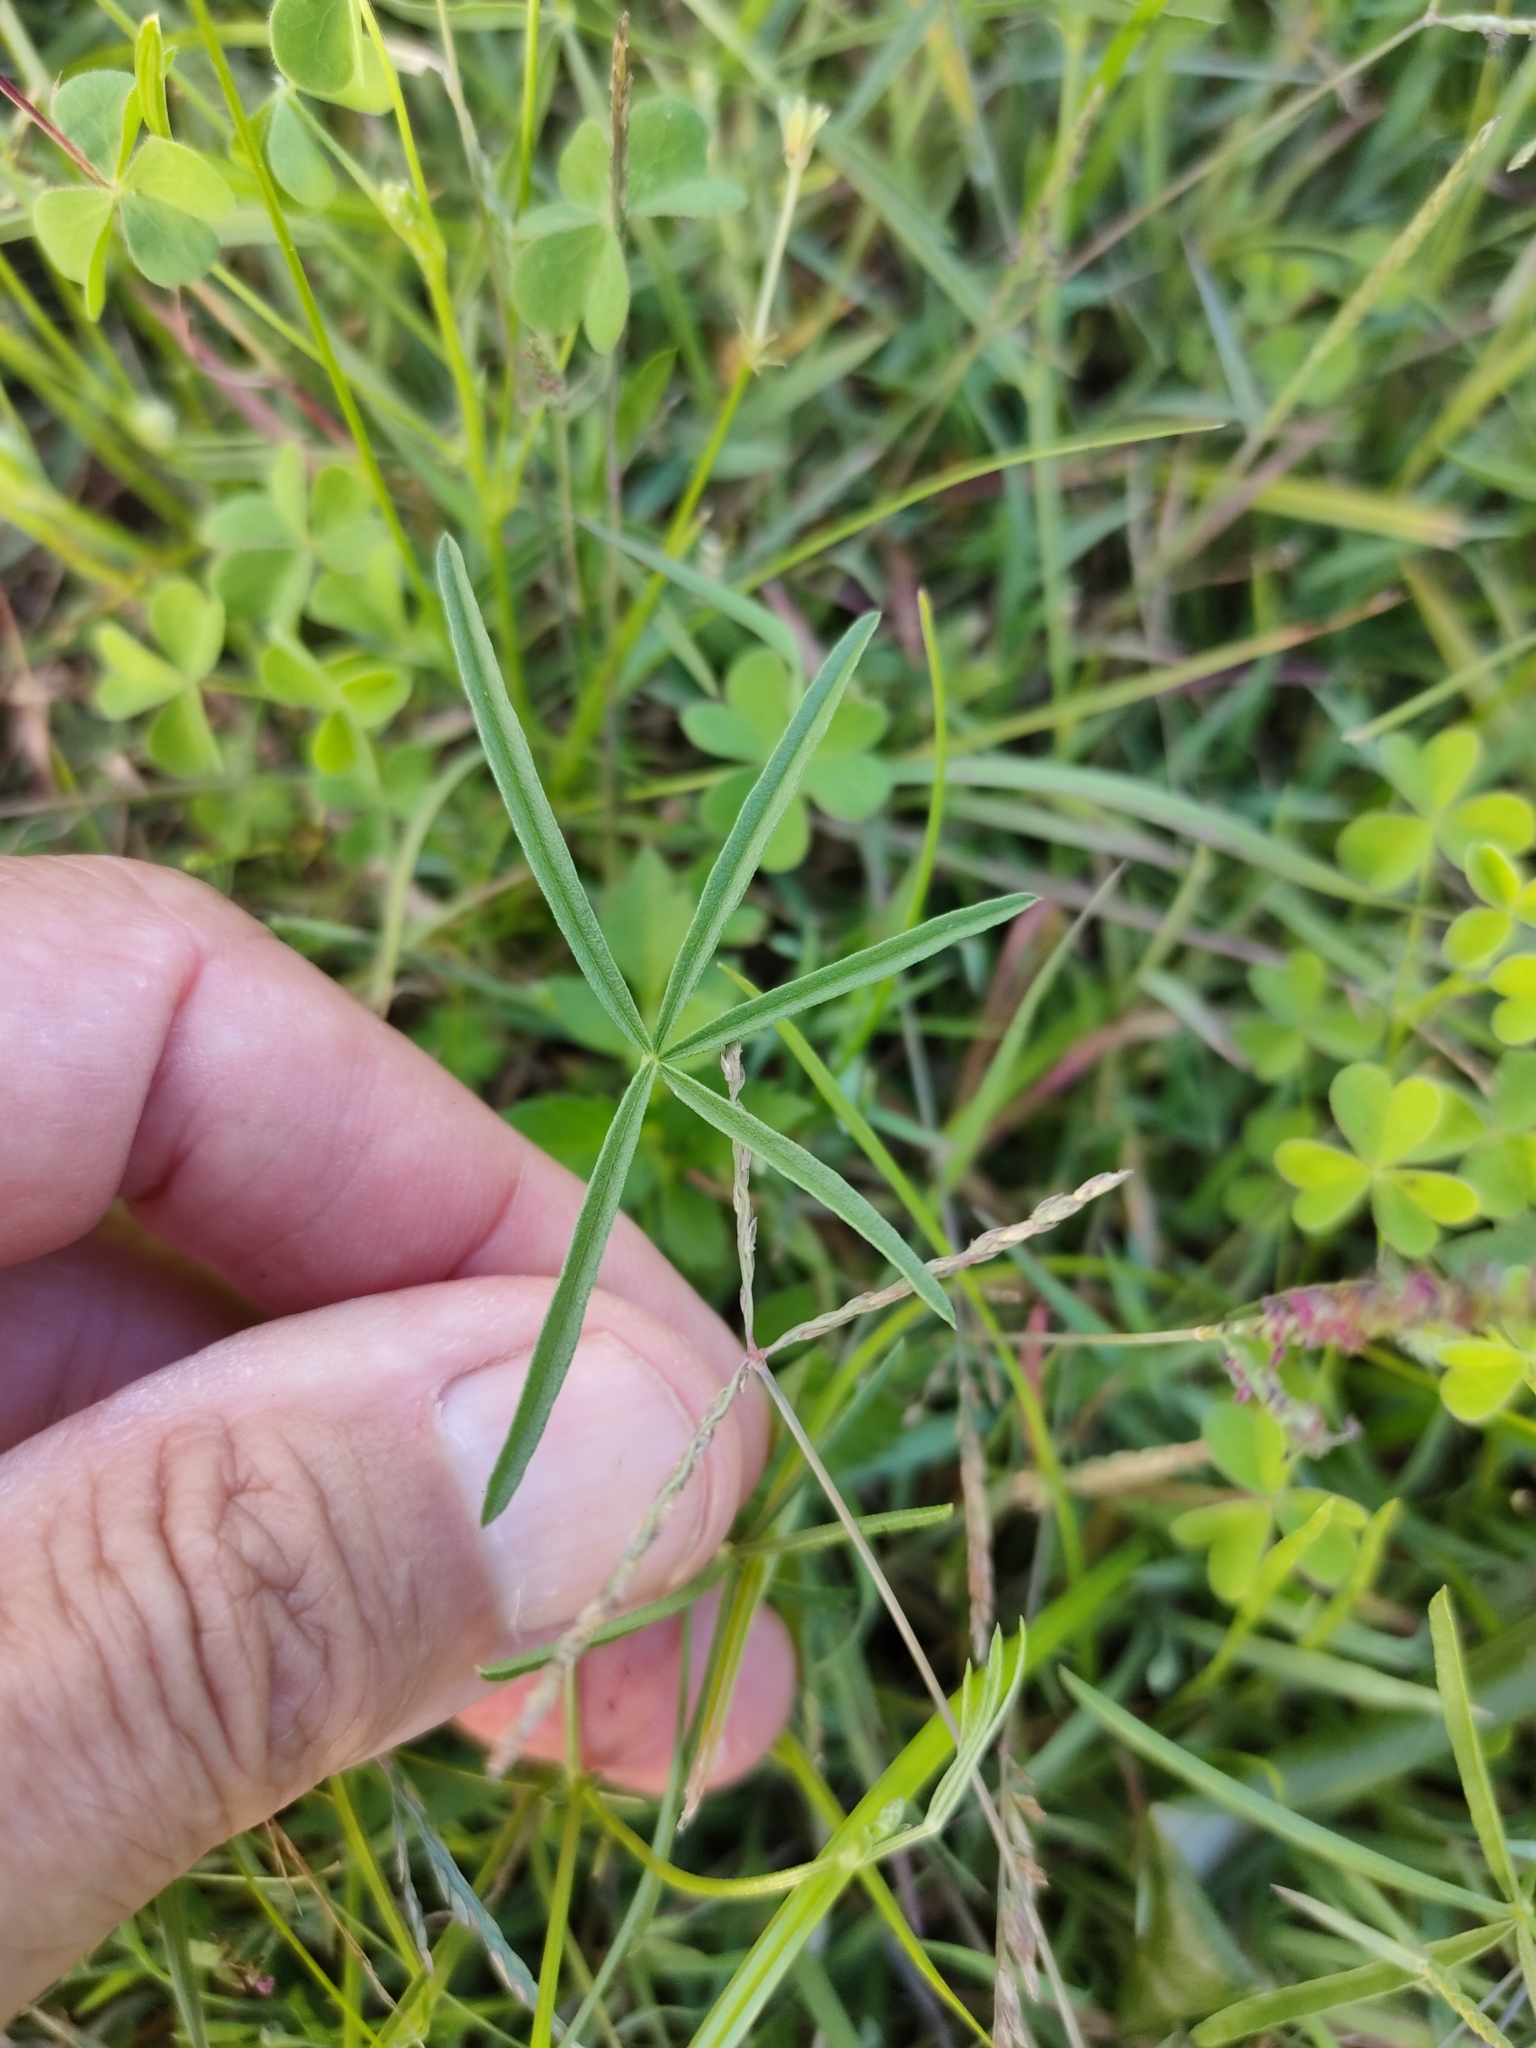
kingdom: Plantae
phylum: Tracheophyta
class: Magnoliopsida
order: Fabales
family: Fabaceae
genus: Cullen
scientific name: Cullen tenax
